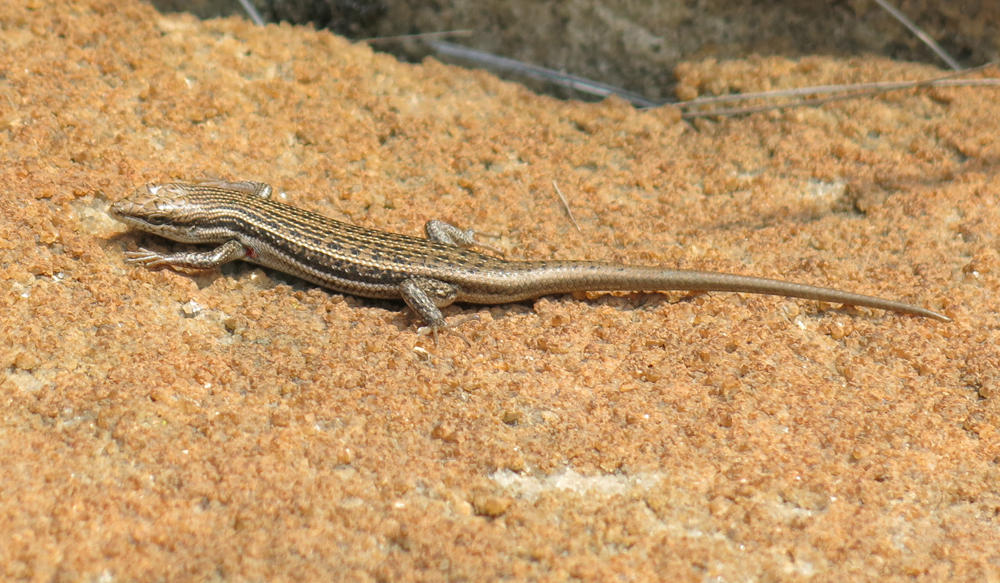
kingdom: Animalia
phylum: Chordata
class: Squamata
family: Scincidae
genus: Trachylepis
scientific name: Trachylepis laevigata
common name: Variable skink
